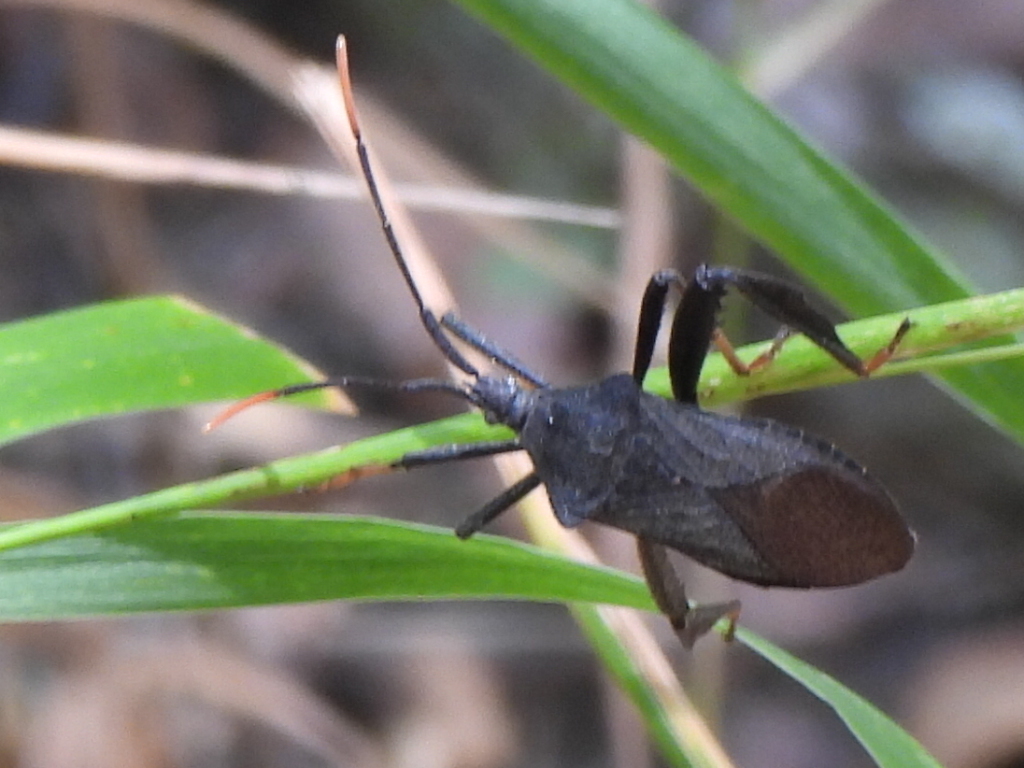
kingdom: Animalia
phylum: Arthropoda
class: Insecta
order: Hemiptera
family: Coreidae
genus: Acanthocephala
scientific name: Acanthocephala terminalis
